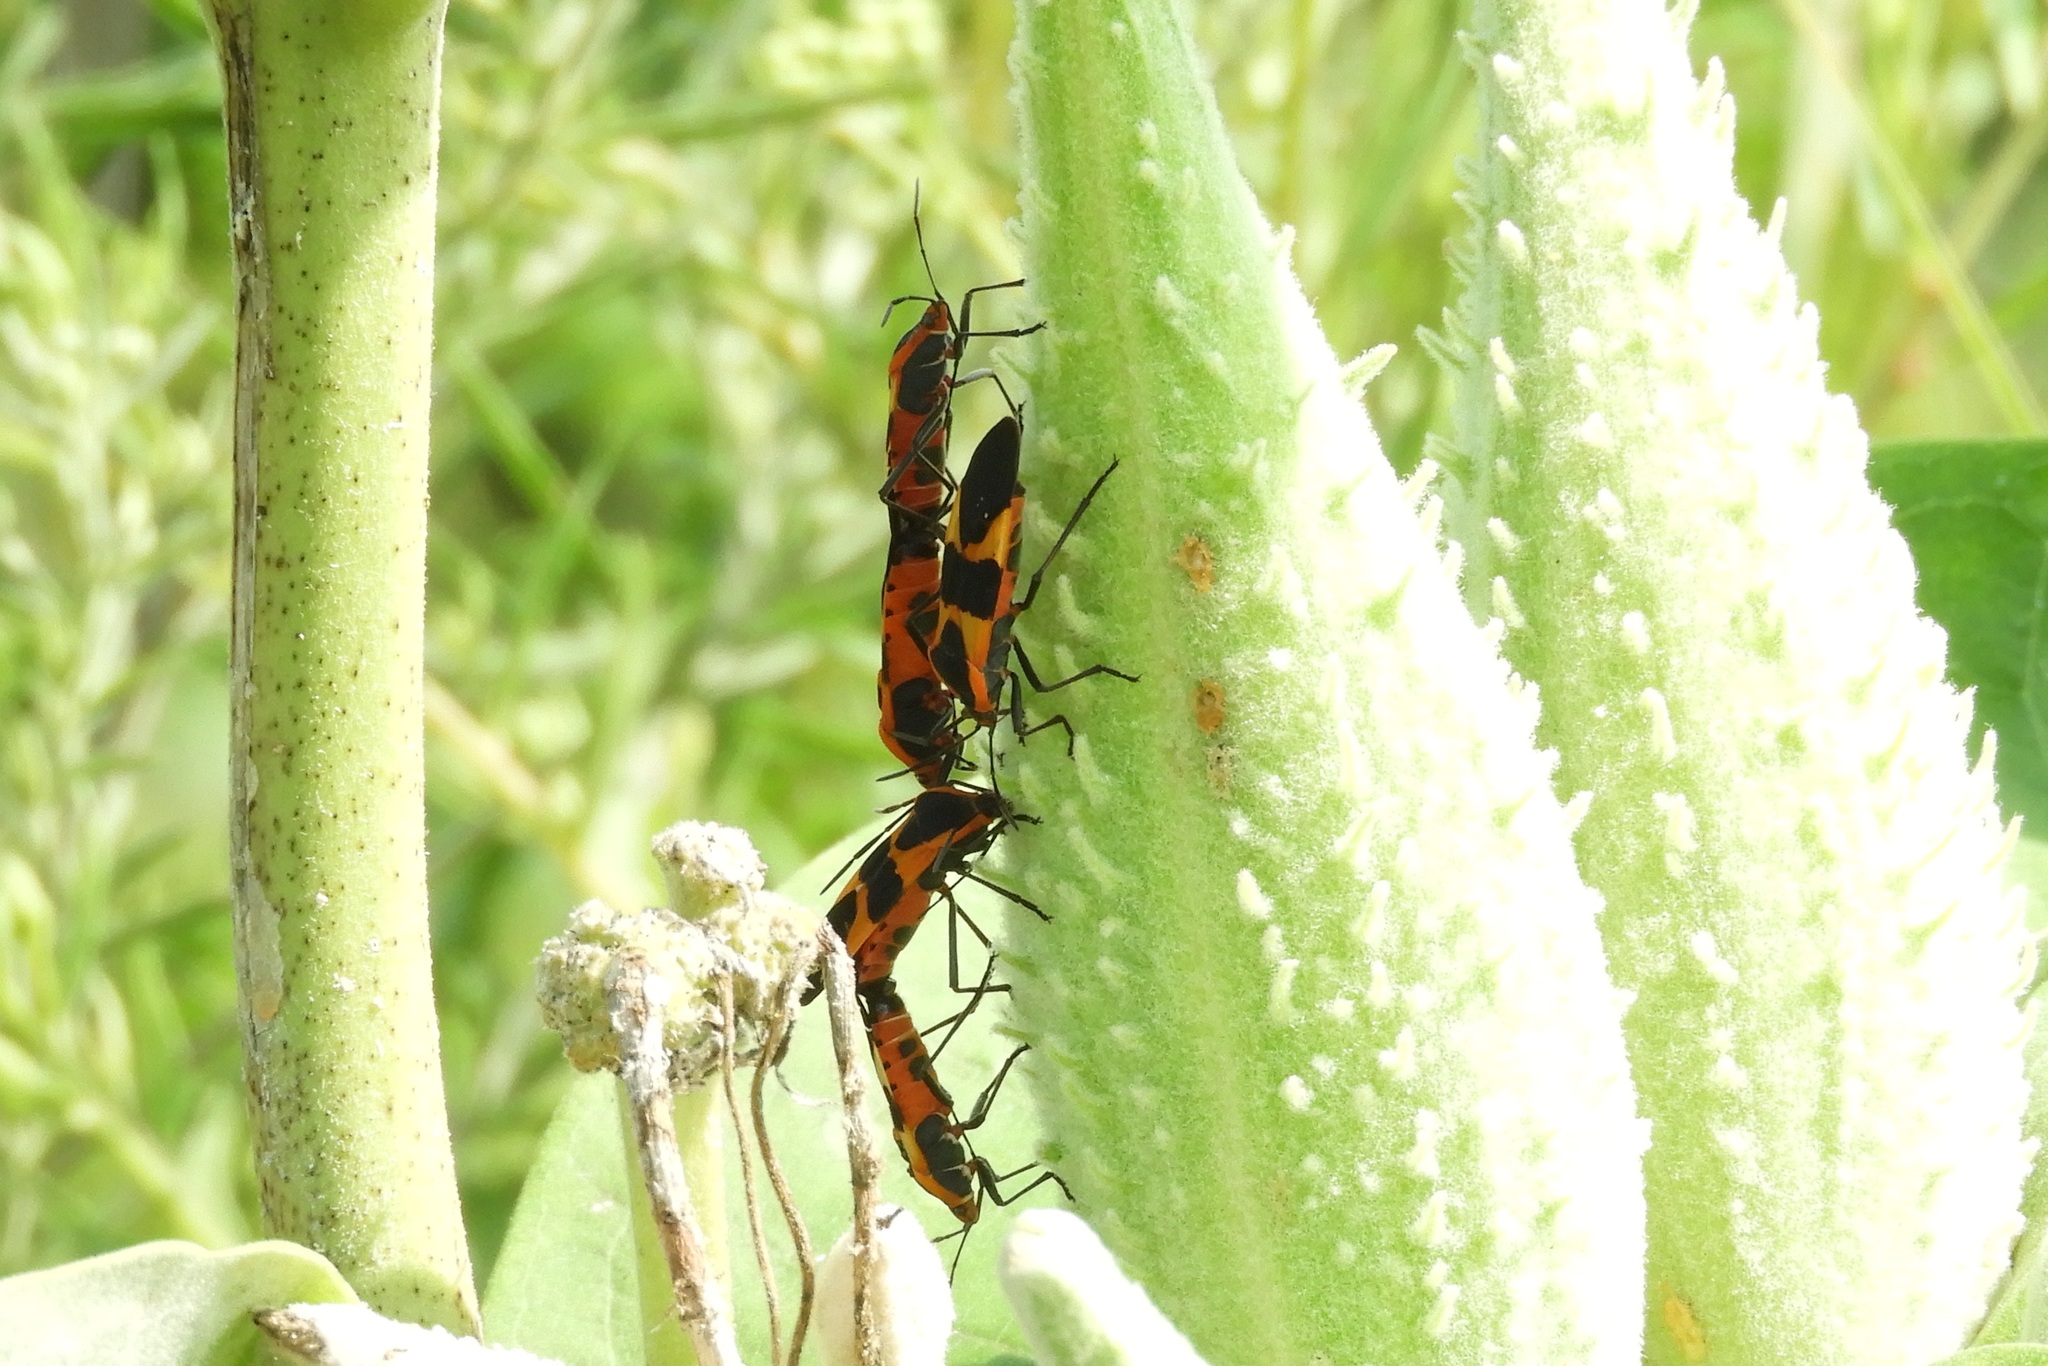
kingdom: Animalia
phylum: Arthropoda
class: Insecta
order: Hemiptera
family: Lygaeidae
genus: Oncopeltus
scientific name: Oncopeltus fasciatus
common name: Large milkweed bug
